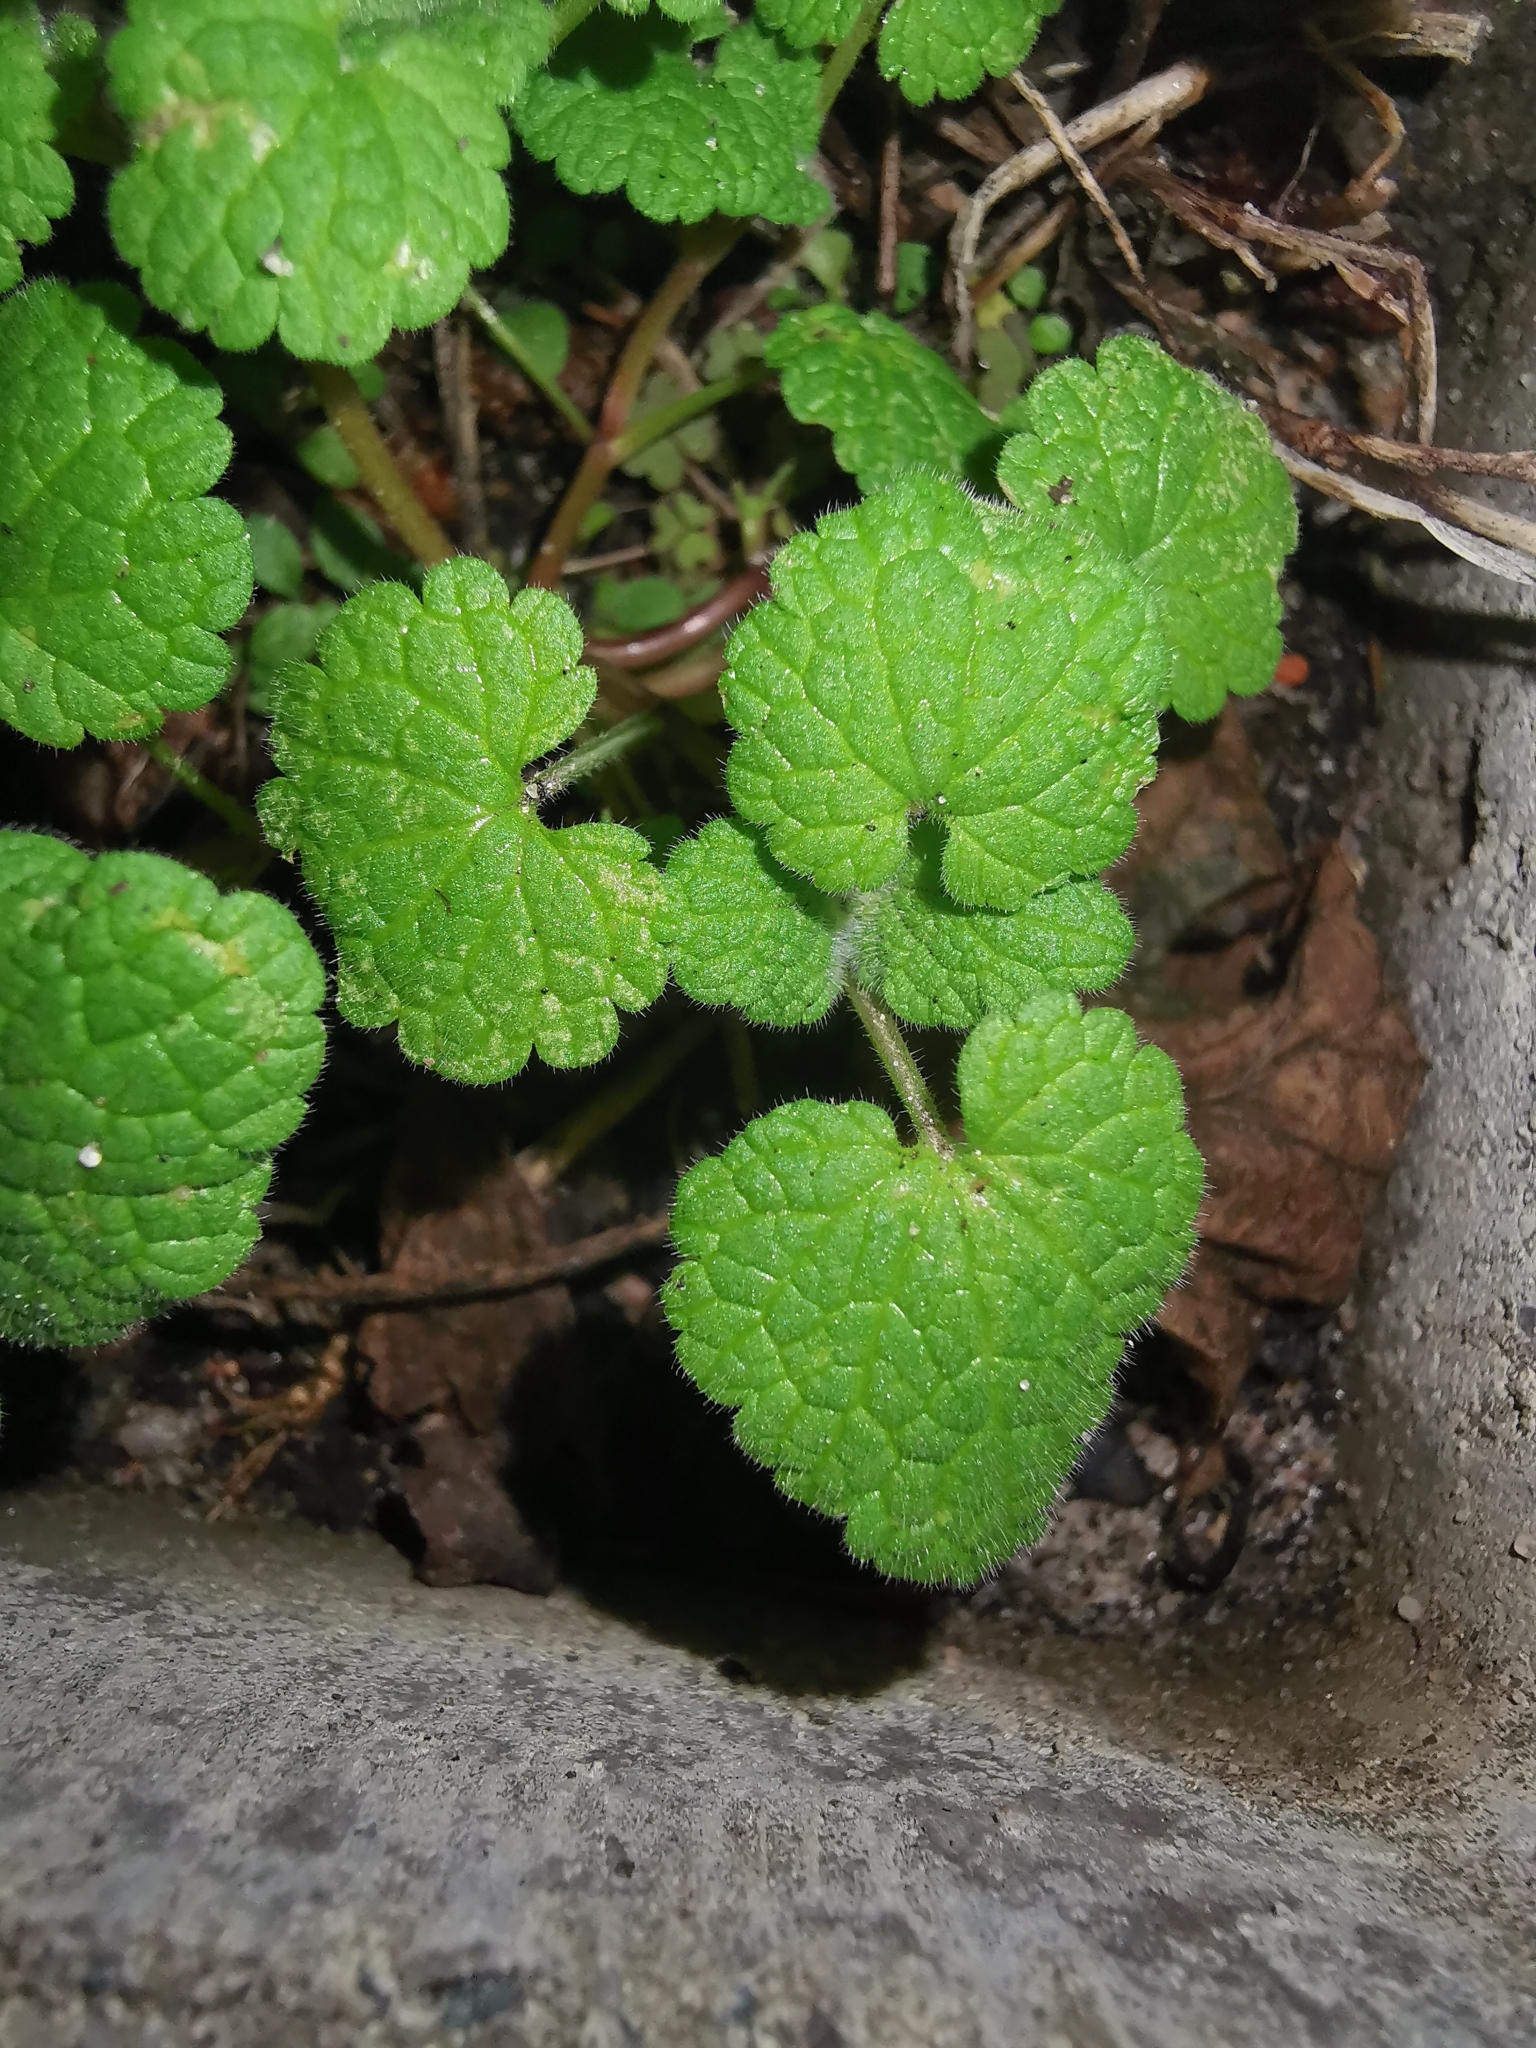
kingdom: Plantae
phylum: Tracheophyta
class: Magnoliopsida
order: Lamiales
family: Lamiaceae
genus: Lamium
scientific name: Lamium purpureum
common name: Red dead-nettle
